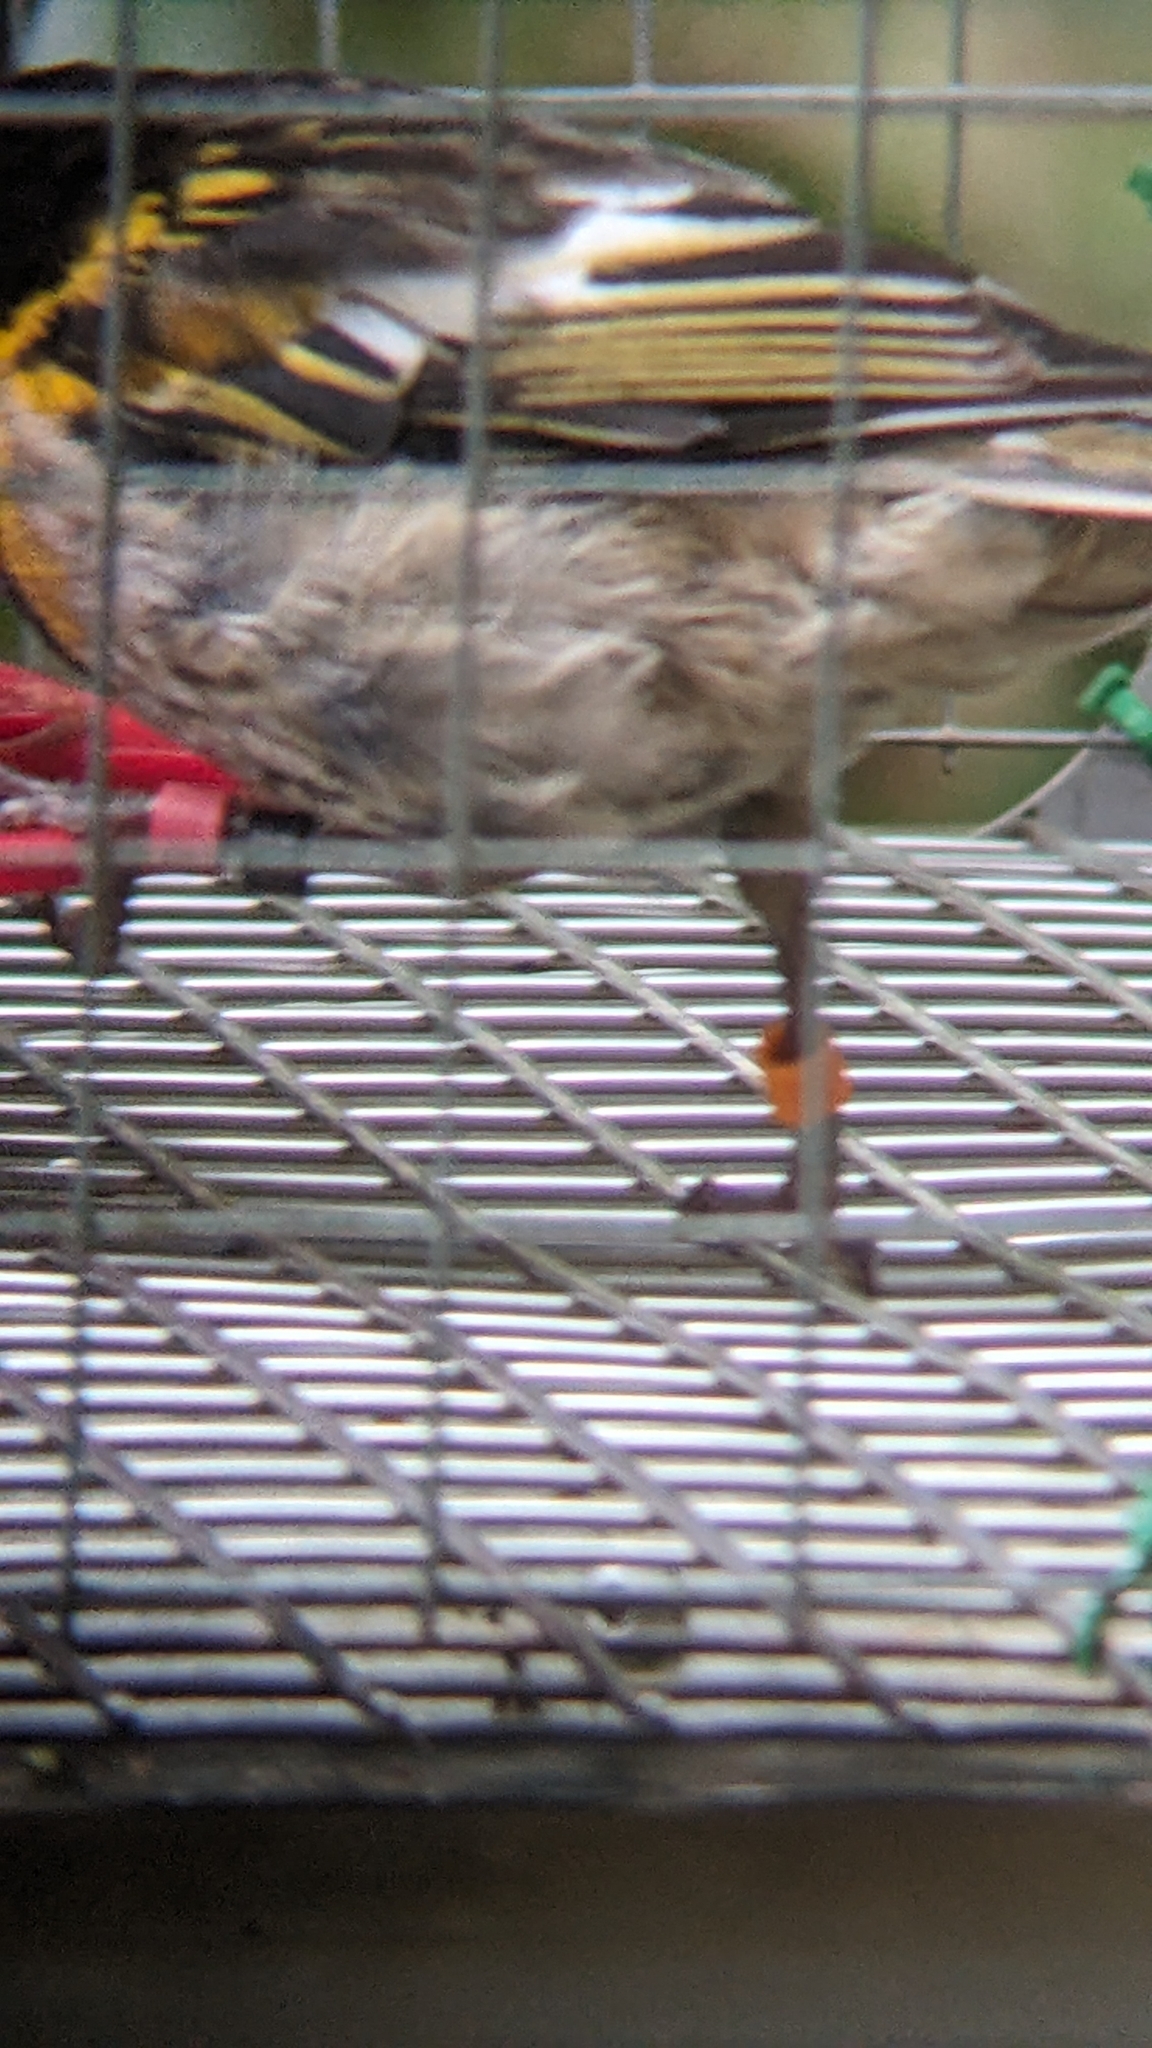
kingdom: Animalia
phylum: Chordata
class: Aves
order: Passeriformes
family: Notiomystidae
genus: Notiomystis
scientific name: Notiomystis cincta
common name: Stitchbird
